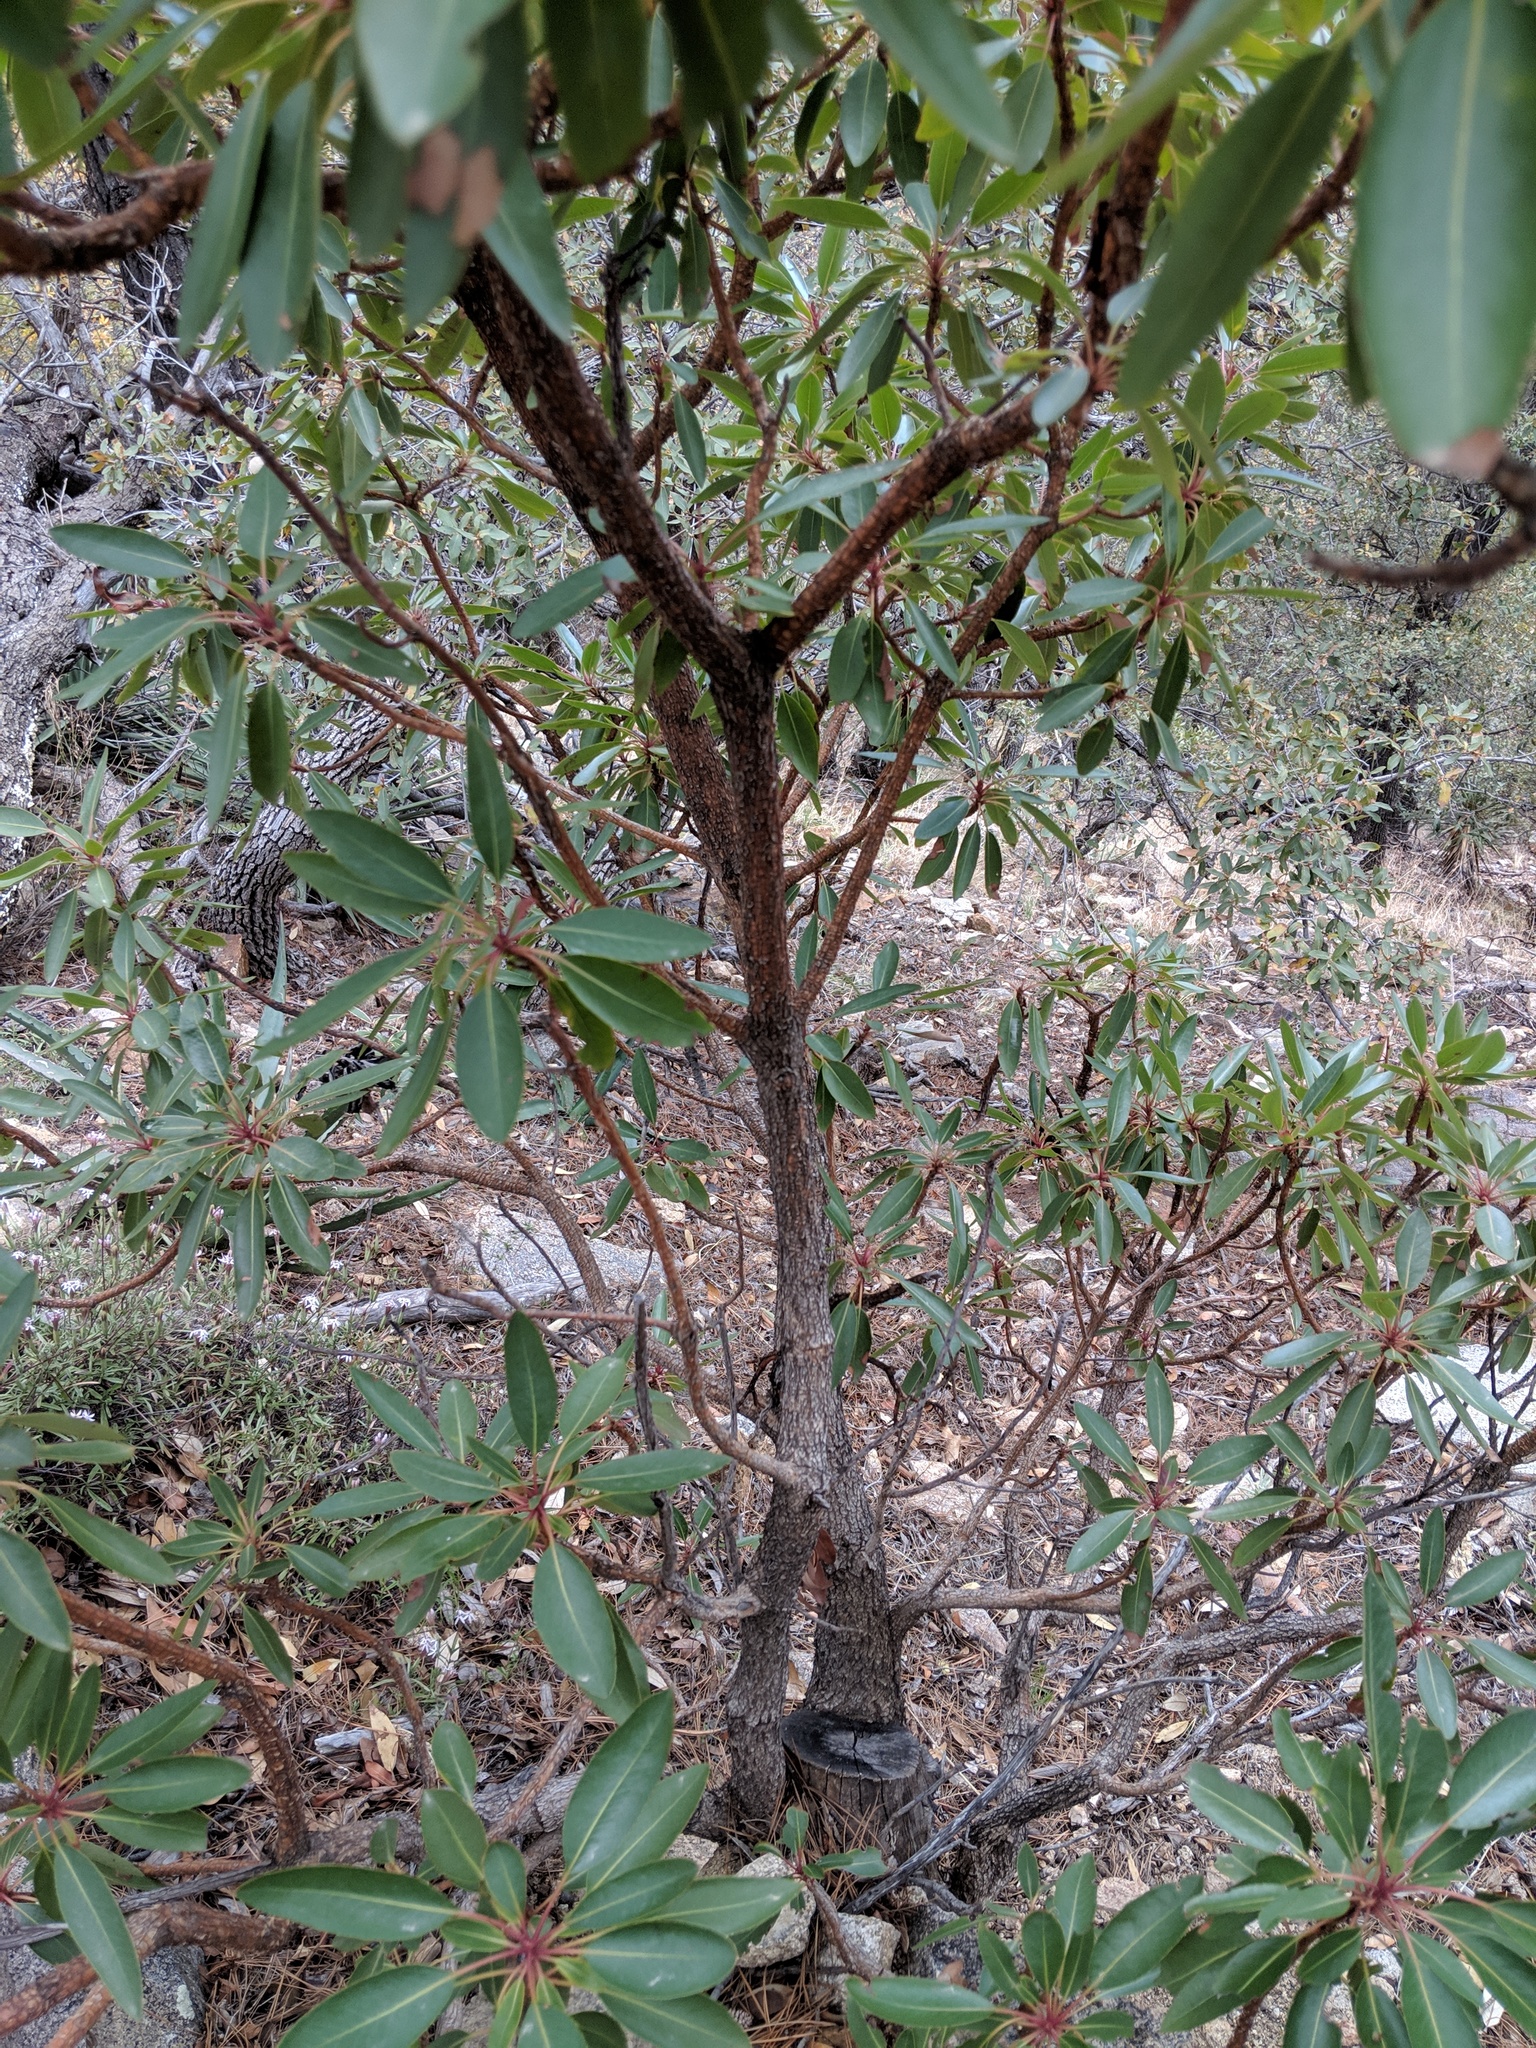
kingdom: Plantae
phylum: Tracheophyta
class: Magnoliopsida
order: Ericales
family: Ericaceae
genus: Arbutus
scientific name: Arbutus arizonica
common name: Arizona madrone
